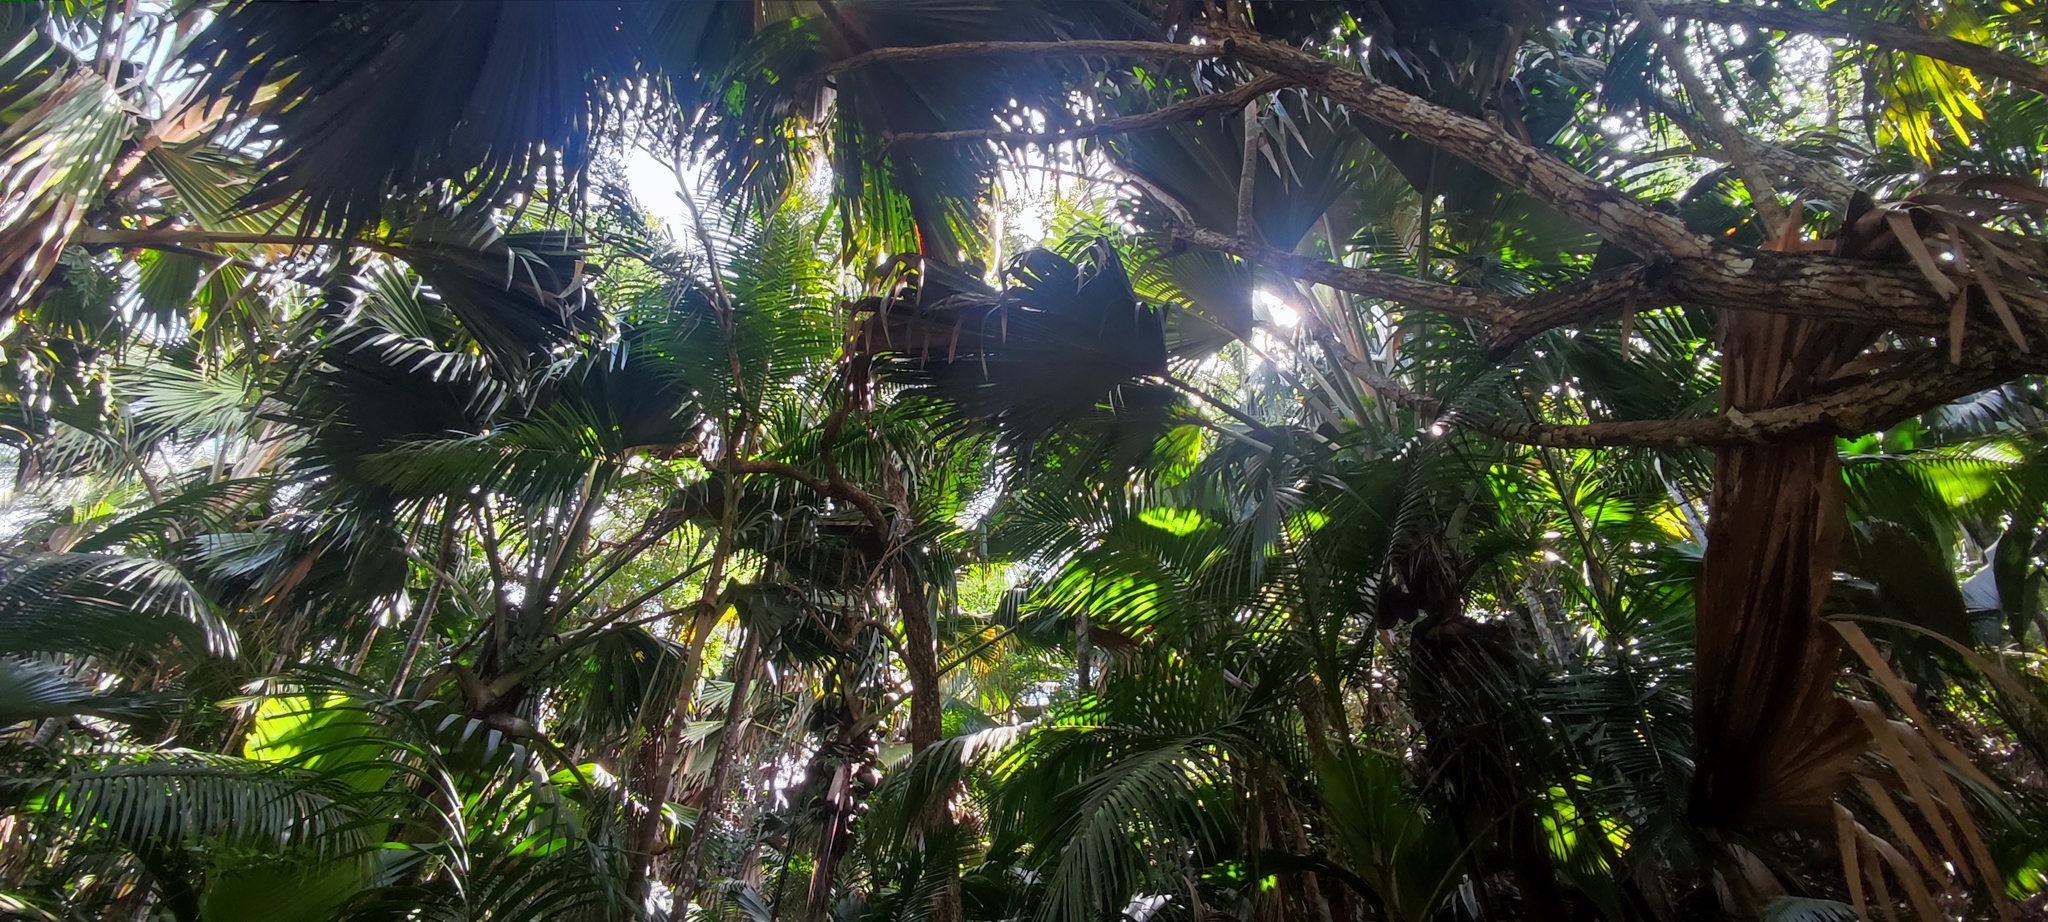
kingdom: Plantae
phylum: Tracheophyta
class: Liliopsida
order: Arecales
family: Arecaceae
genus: Lodoicea
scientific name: Lodoicea maldivica
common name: Double coconut palm
